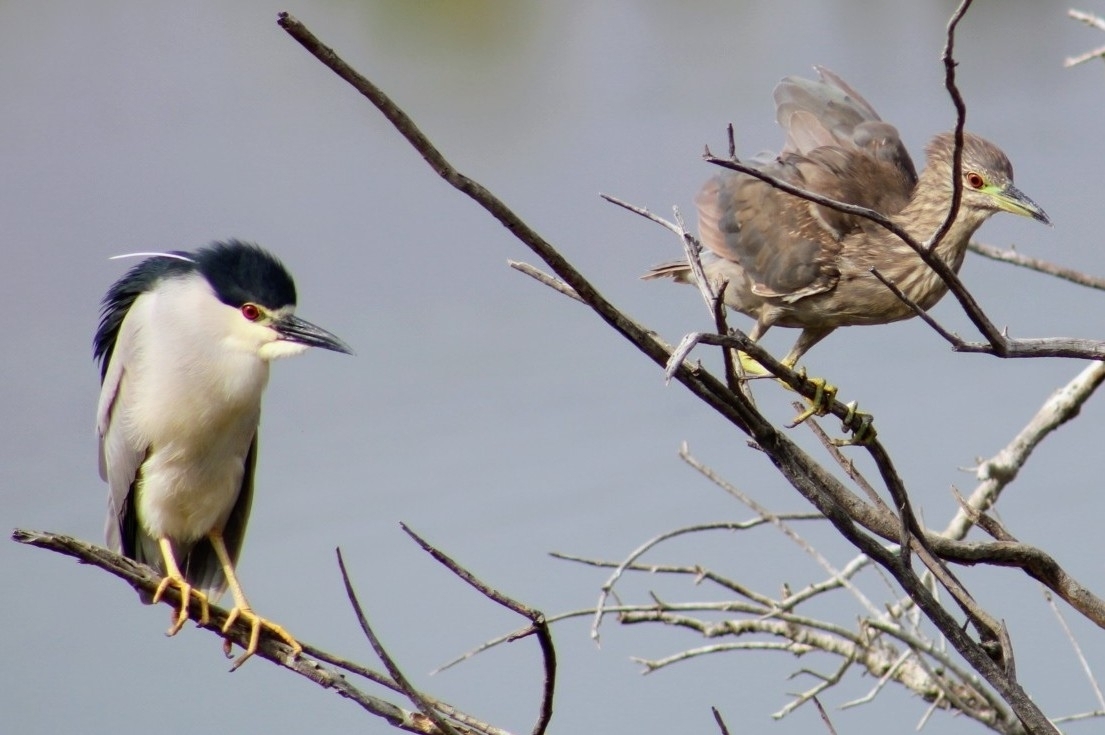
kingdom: Animalia
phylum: Chordata
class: Aves
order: Pelecaniformes
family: Ardeidae
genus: Nycticorax
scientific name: Nycticorax nycticorax
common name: Black-crowned night heron
